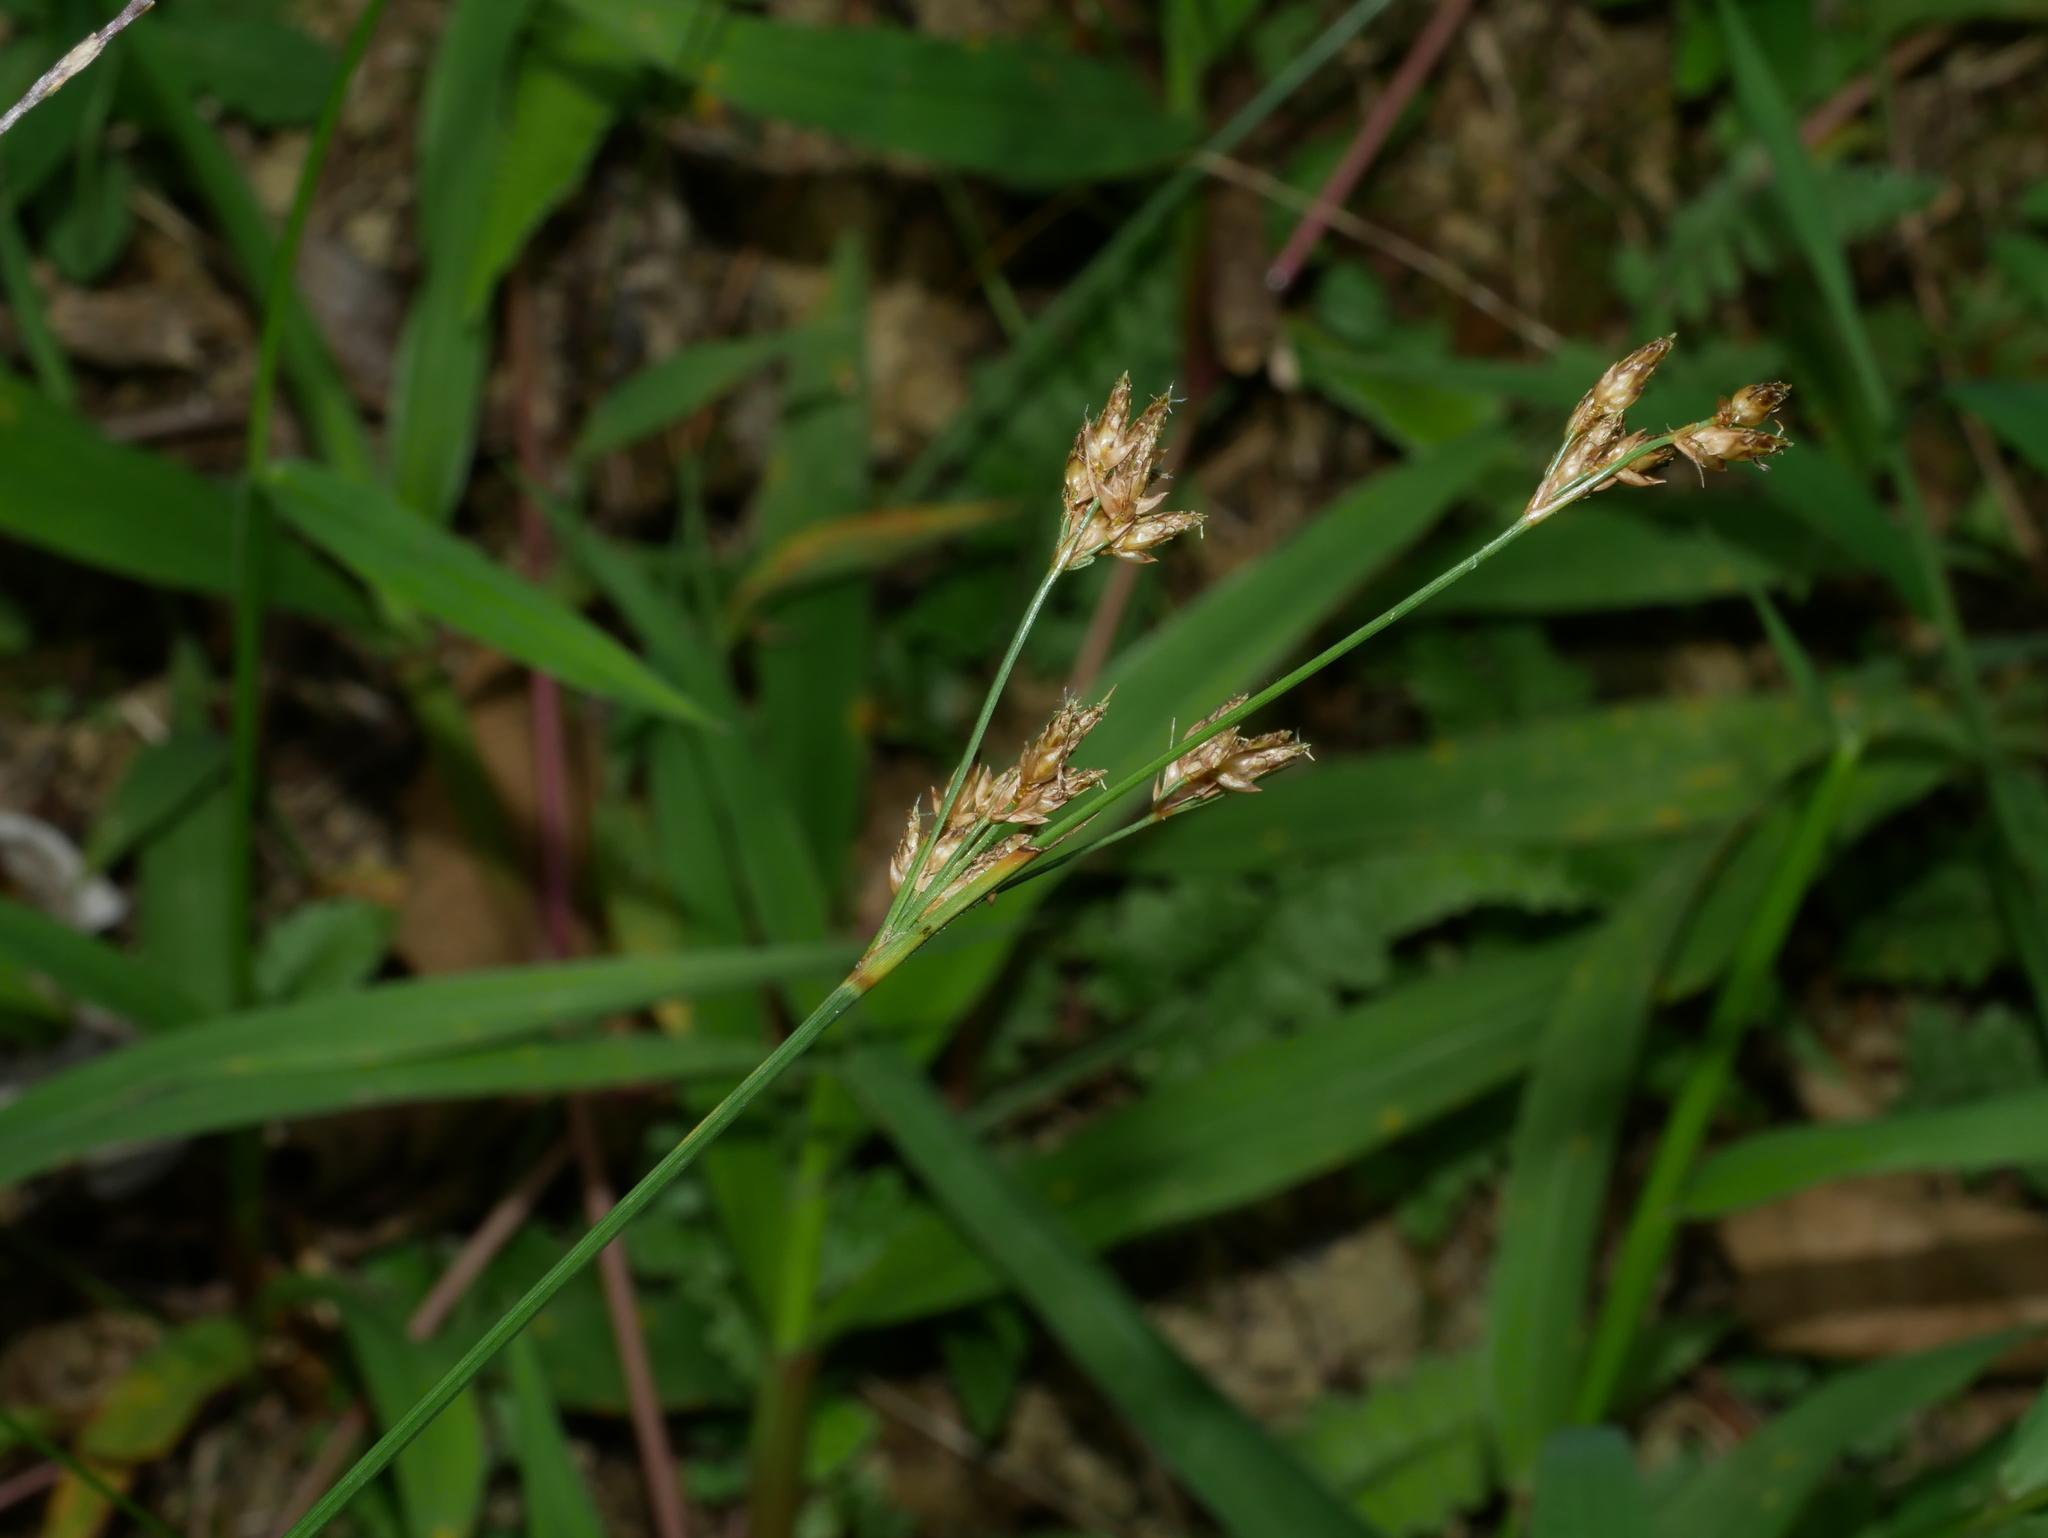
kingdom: Plantae
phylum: Tracheophyta
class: Liliopsida
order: Poales
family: Cyperaceae
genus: Fimbristylis
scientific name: Fimbristylis dichotoma
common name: Forked fimbry
